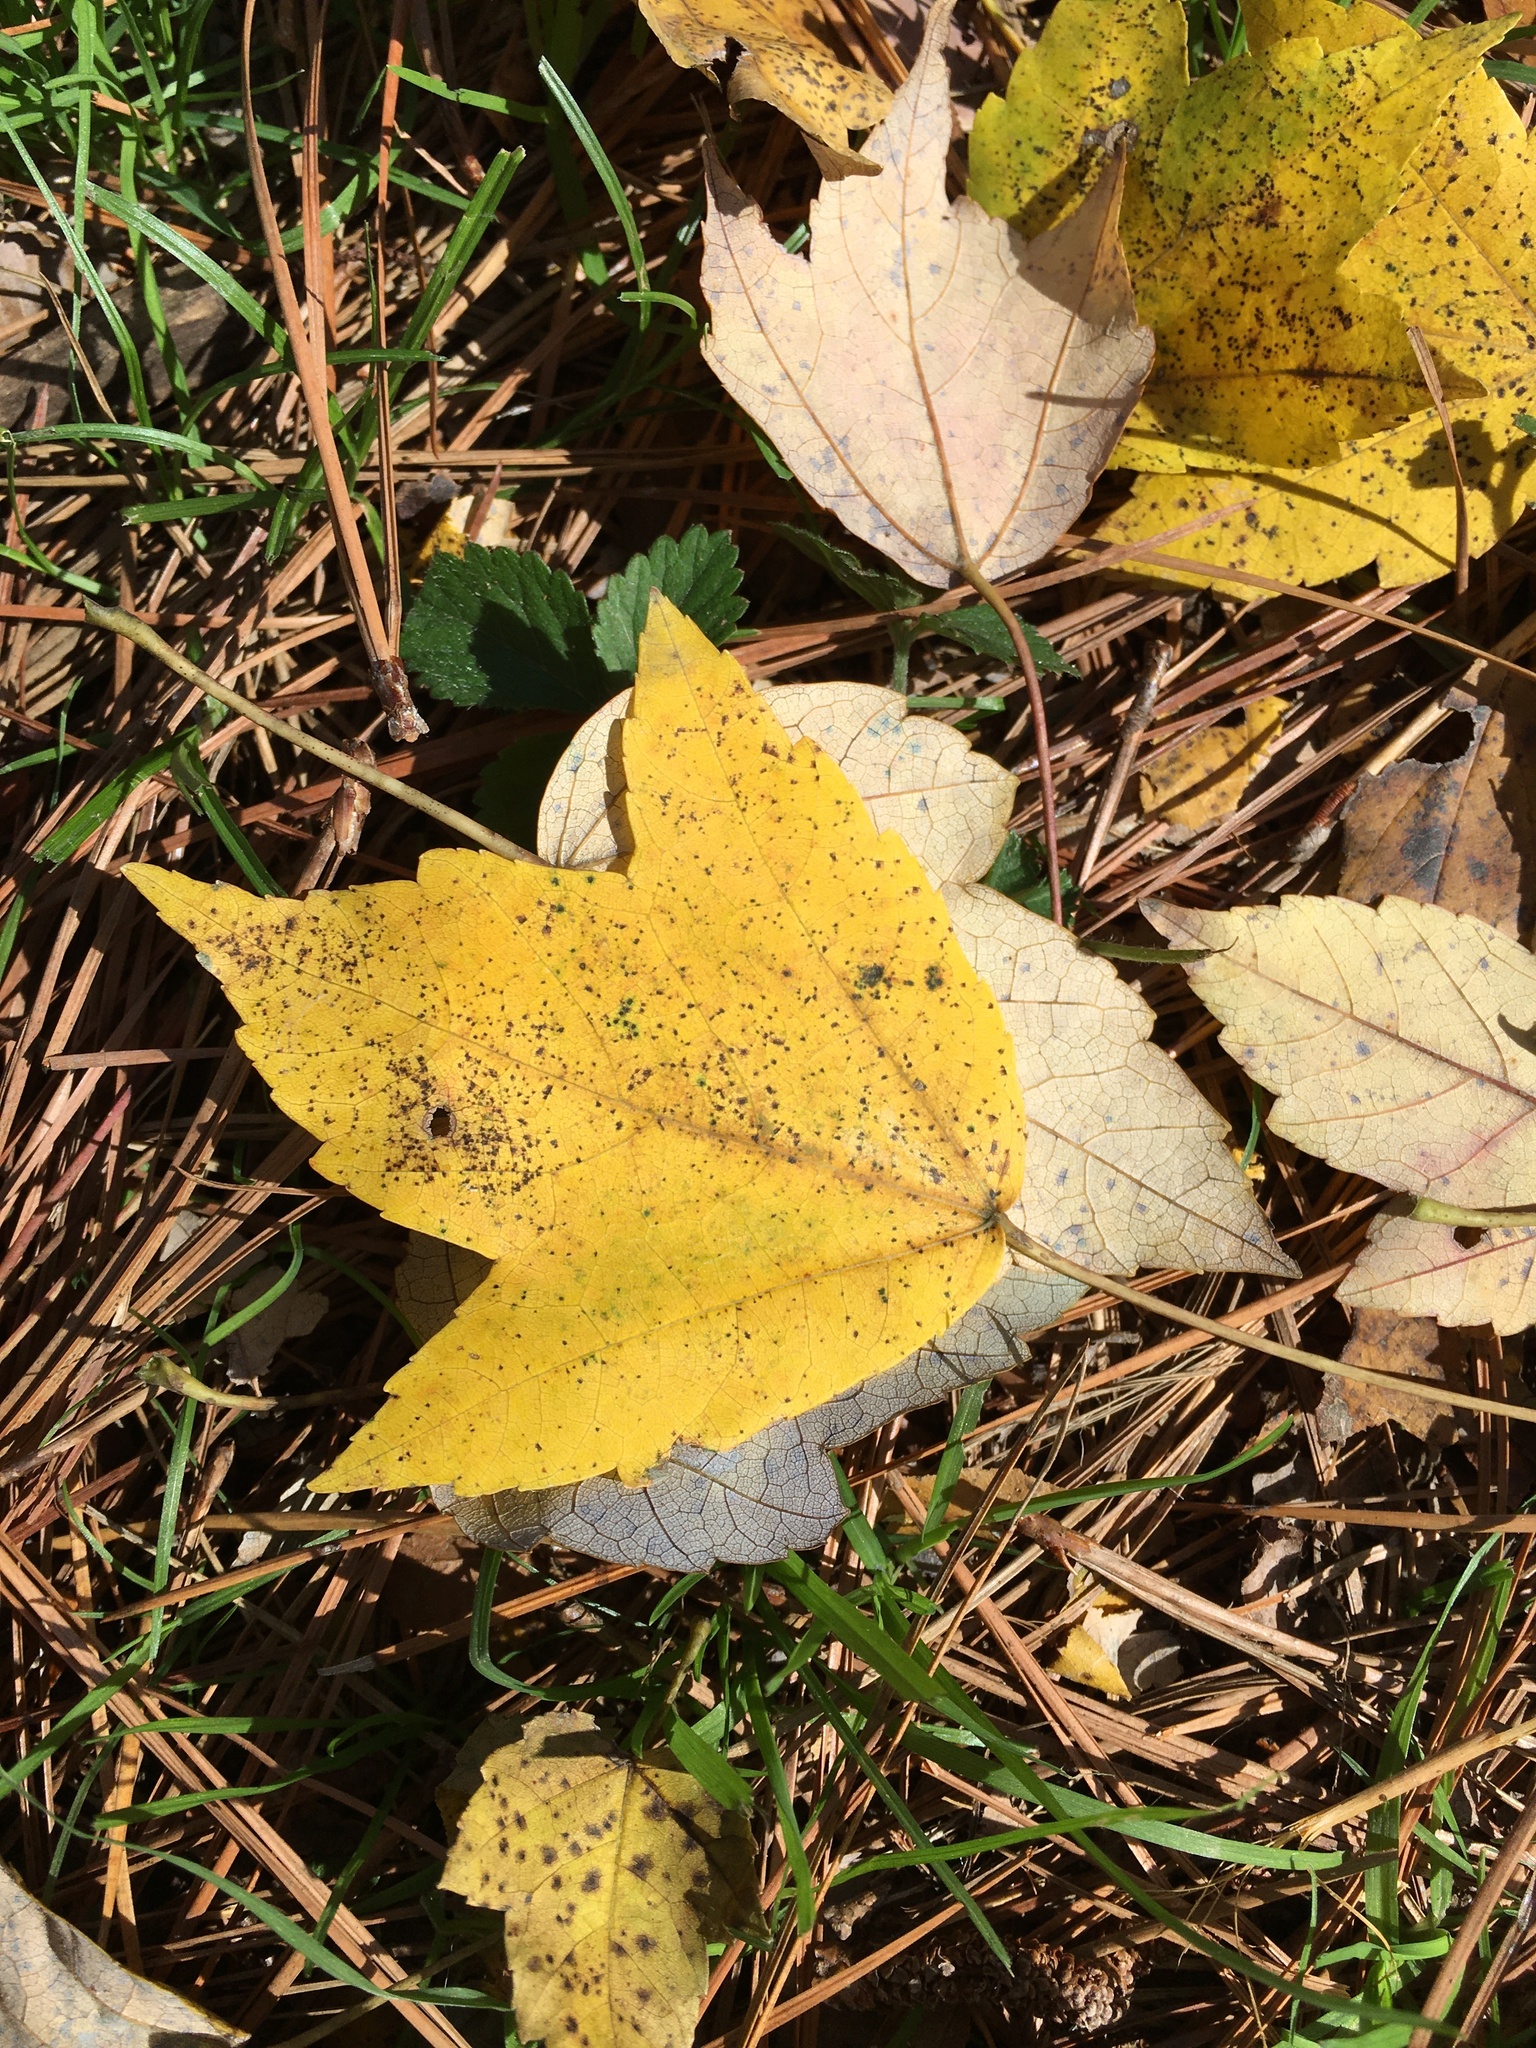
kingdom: Plantae
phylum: Tracheophyta
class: Magnoliopsida
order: Sapindales
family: Sapindaceae
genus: Acer
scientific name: Acer rubrum
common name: Red maple
